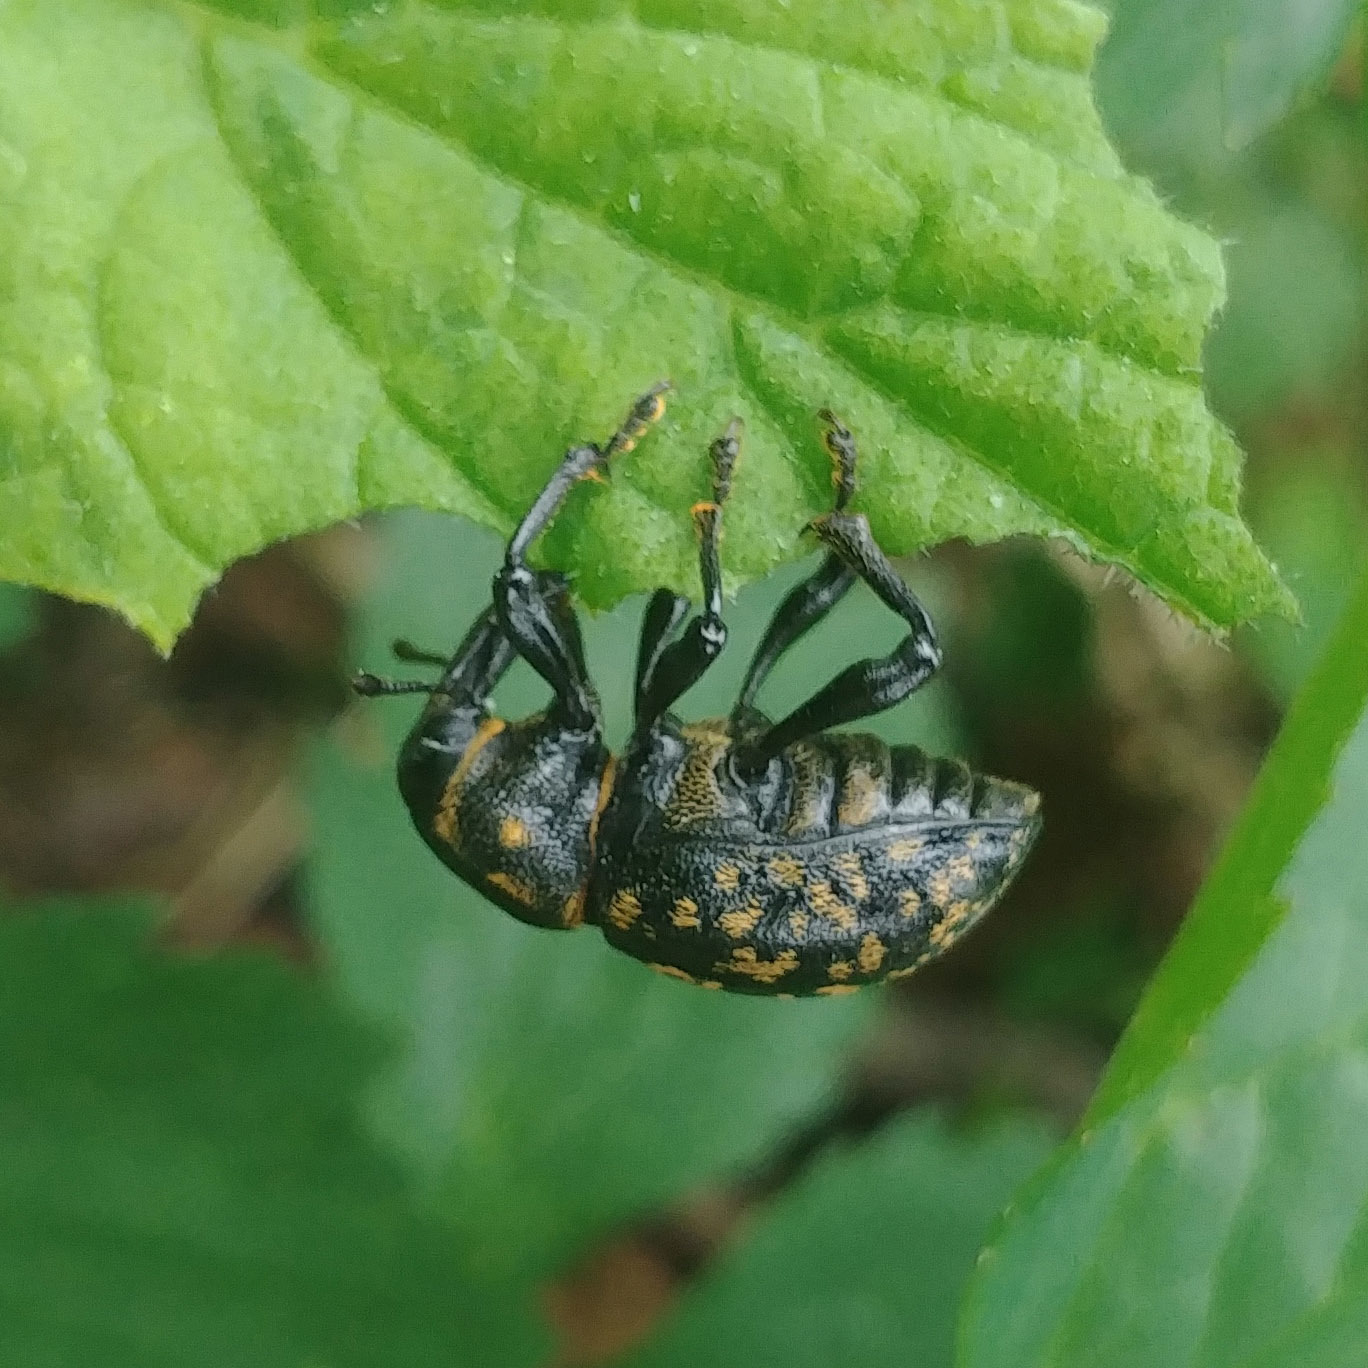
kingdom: Animalia
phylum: Arthropoda
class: Insecta
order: Coleoptera
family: Curculionidae
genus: Liparus
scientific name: Liparus glabrirostris
